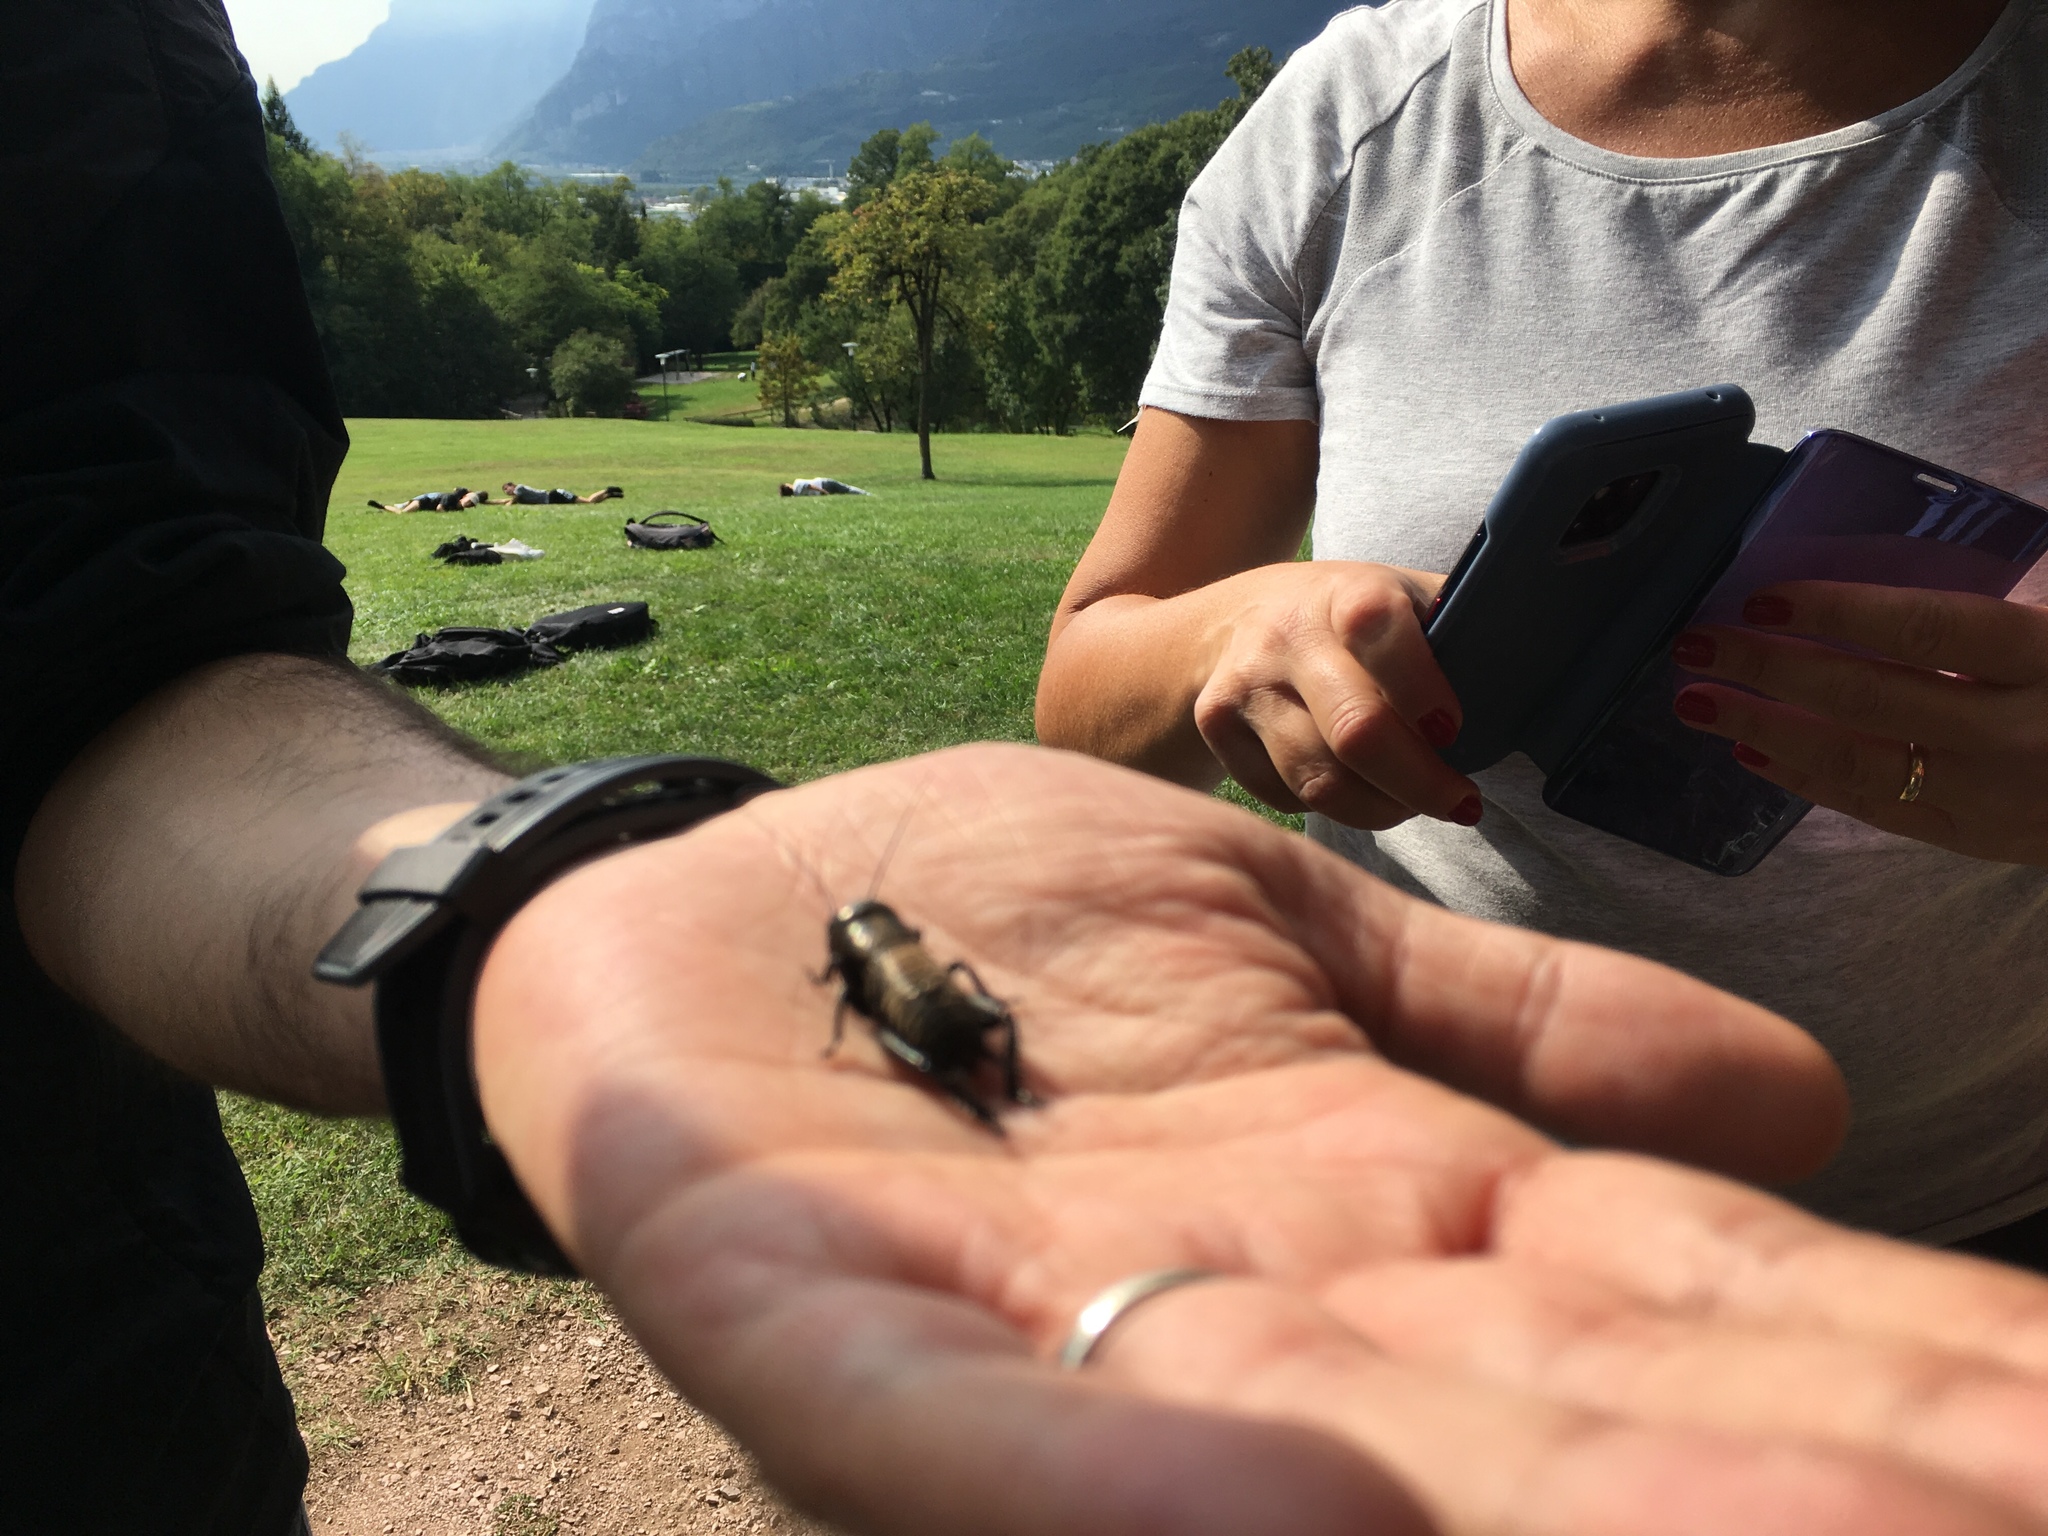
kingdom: Animalia
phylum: Arthropoda
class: Insecta
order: Orthoptera
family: Gryllidae
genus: Gryllus
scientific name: Gryllus campestris
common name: Field cricket
